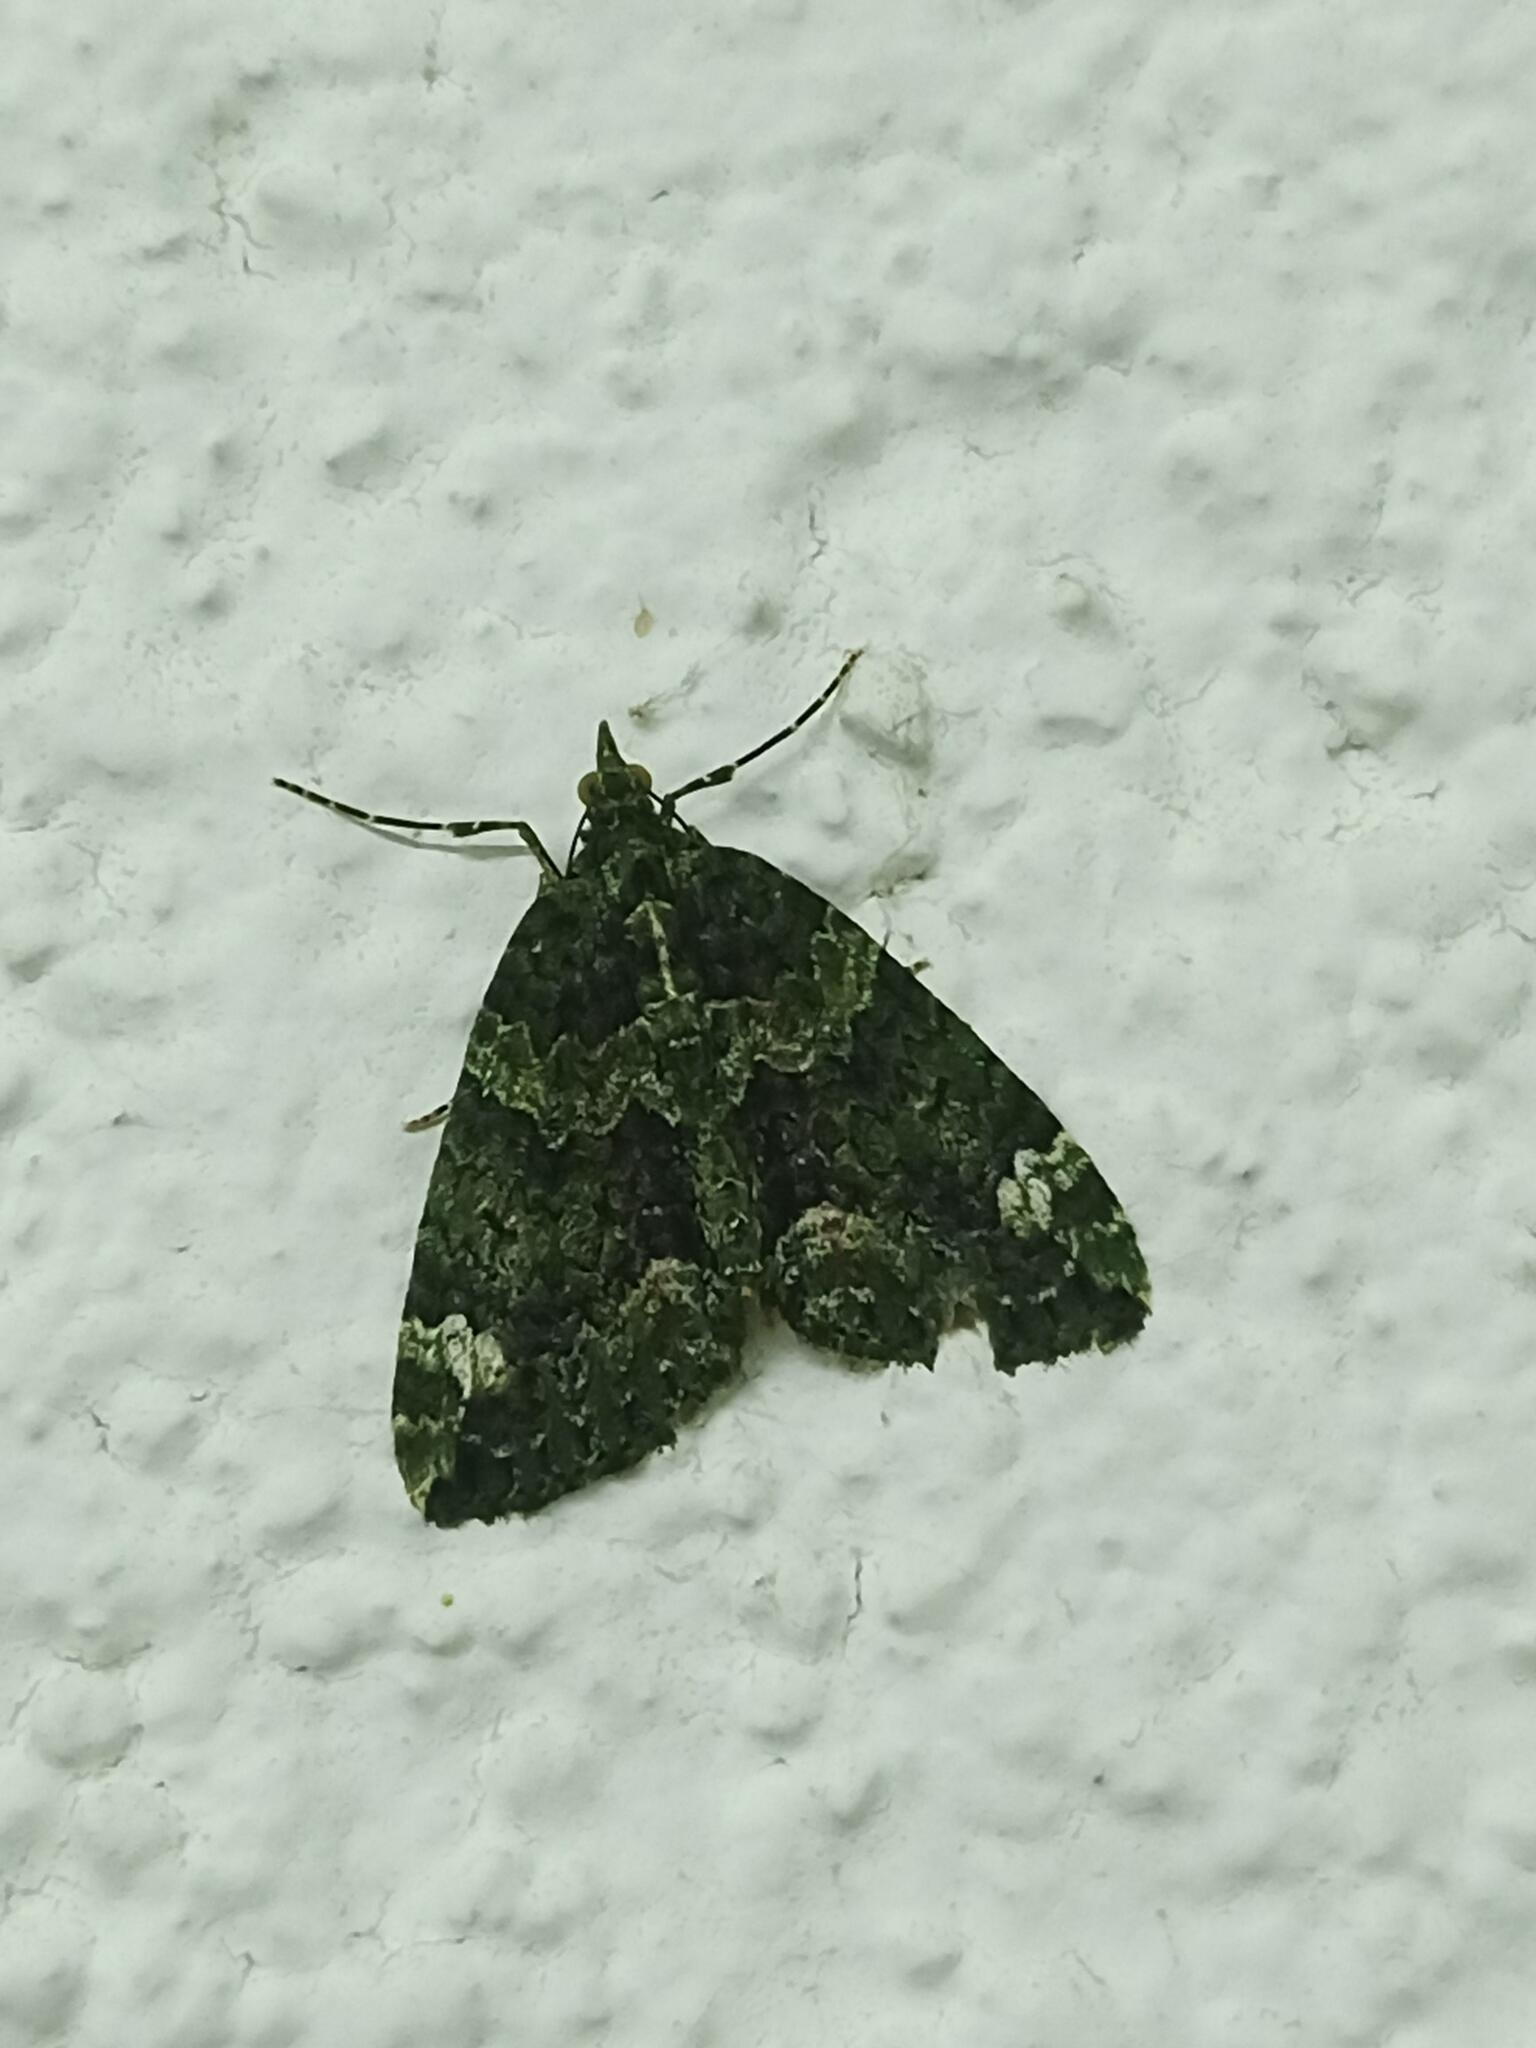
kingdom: Animalia
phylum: Arthropoda
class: Insecta
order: Lepidoptera
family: Geometridae
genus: Chloroclysta
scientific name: Chloroclysta siterata
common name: Red-green carpet
